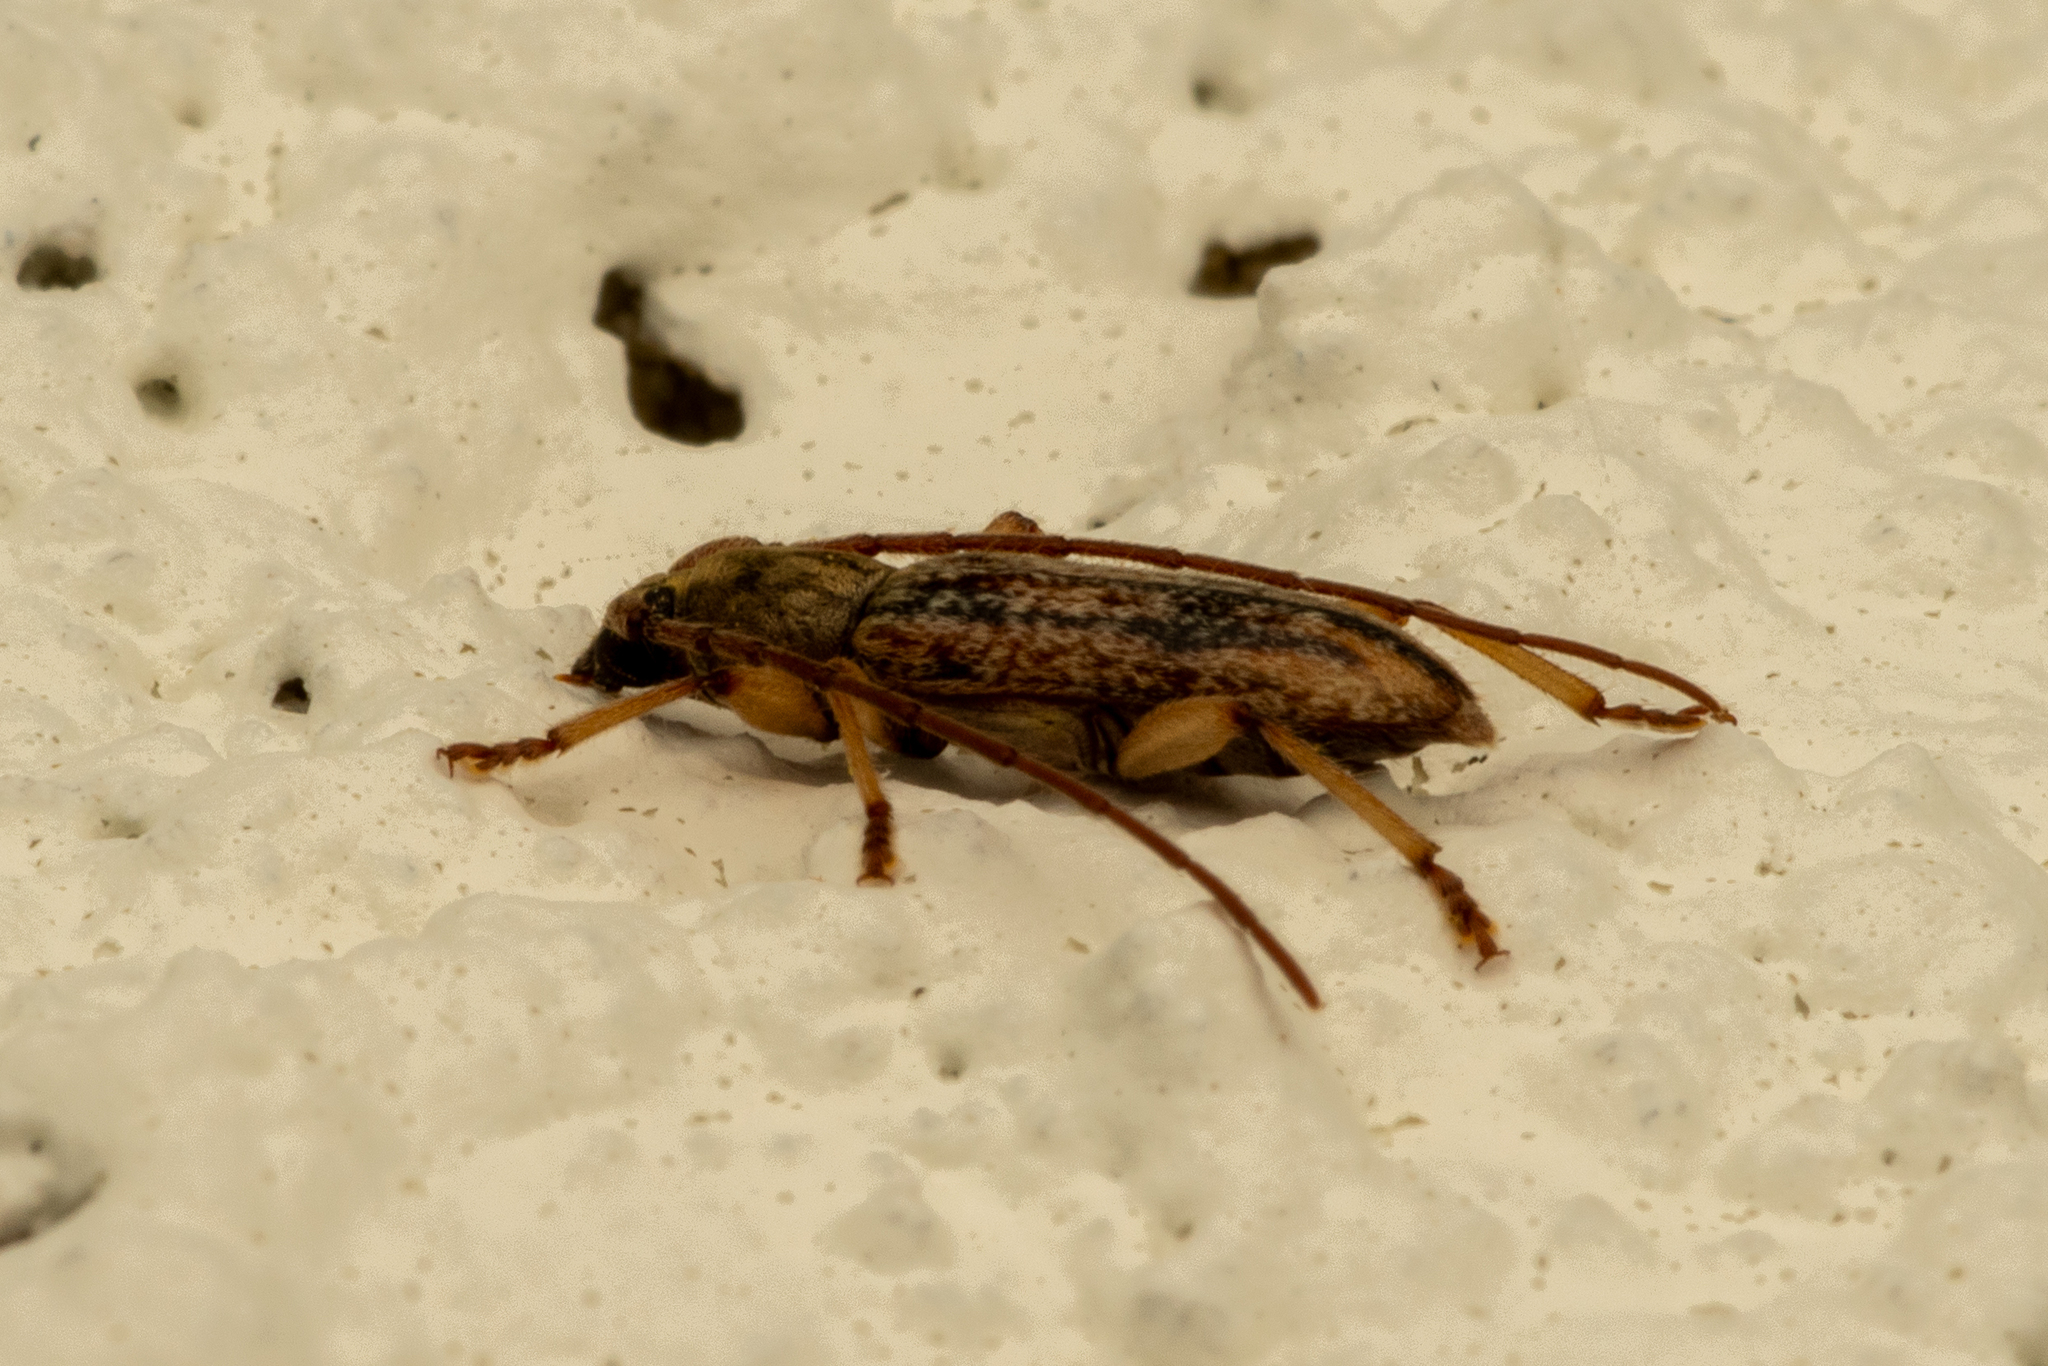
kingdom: Animalia
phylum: Arthropoda
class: Insecta
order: Coleoptera
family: Cerambycidae
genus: Anelaphus
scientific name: Anelaphus cinereus
